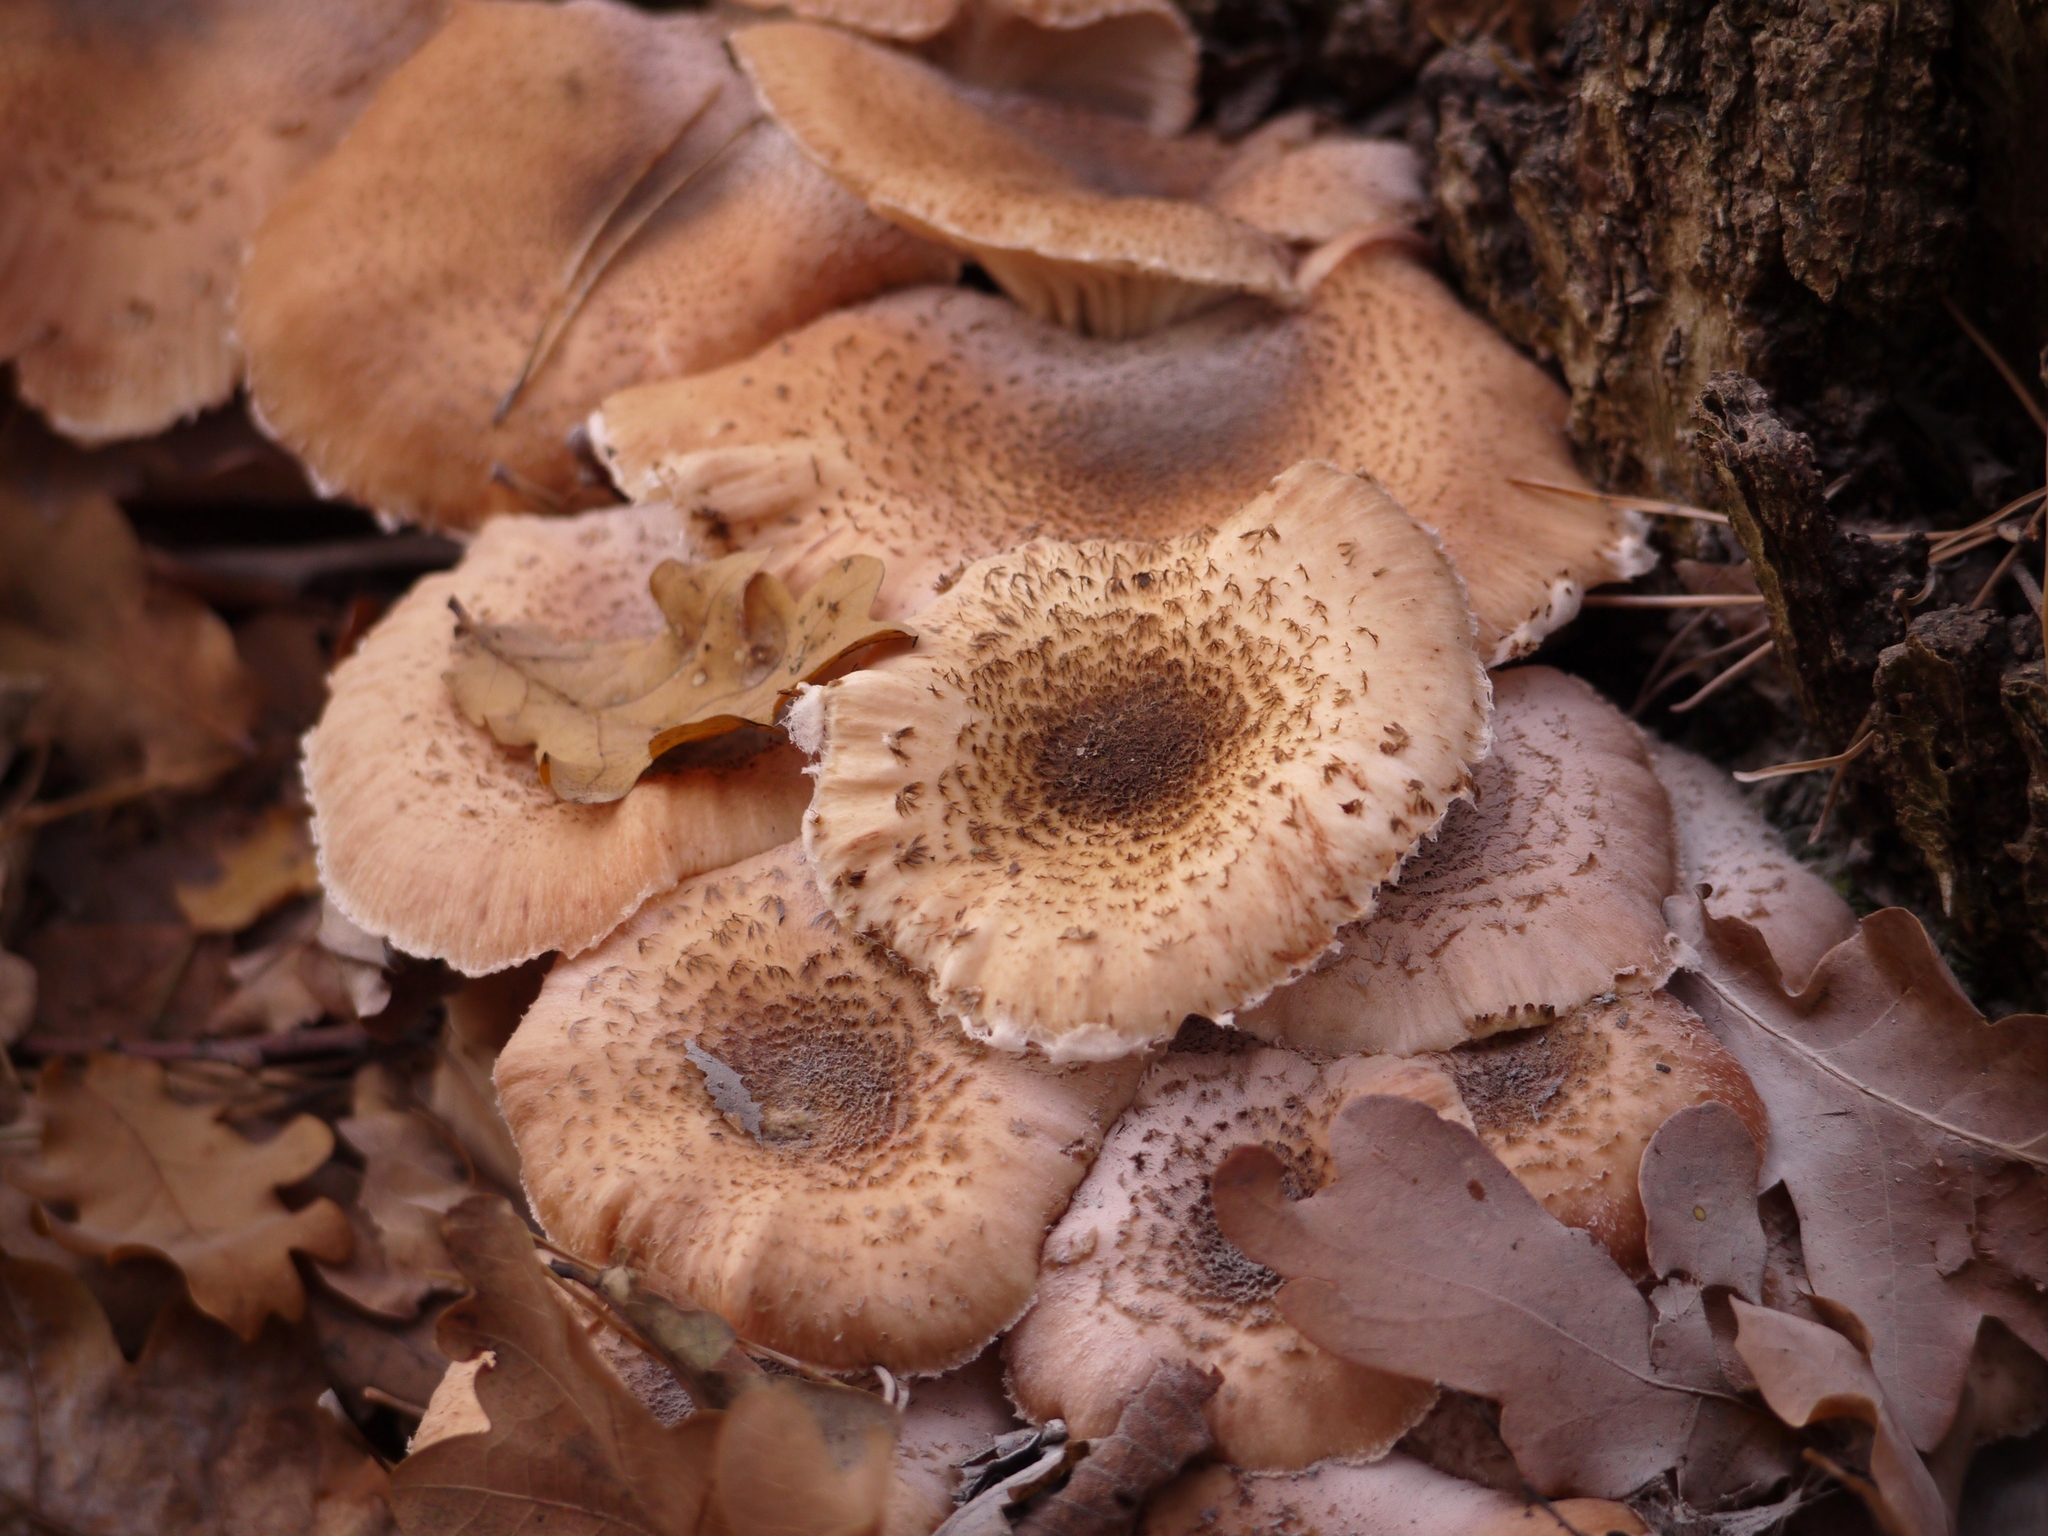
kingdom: Fungi
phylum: Basidiomycota
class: Agaricomycetes
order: Agaricales
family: Physalacriaceae
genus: Armillaria
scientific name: Armillaria mellea
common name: Honey fungus
